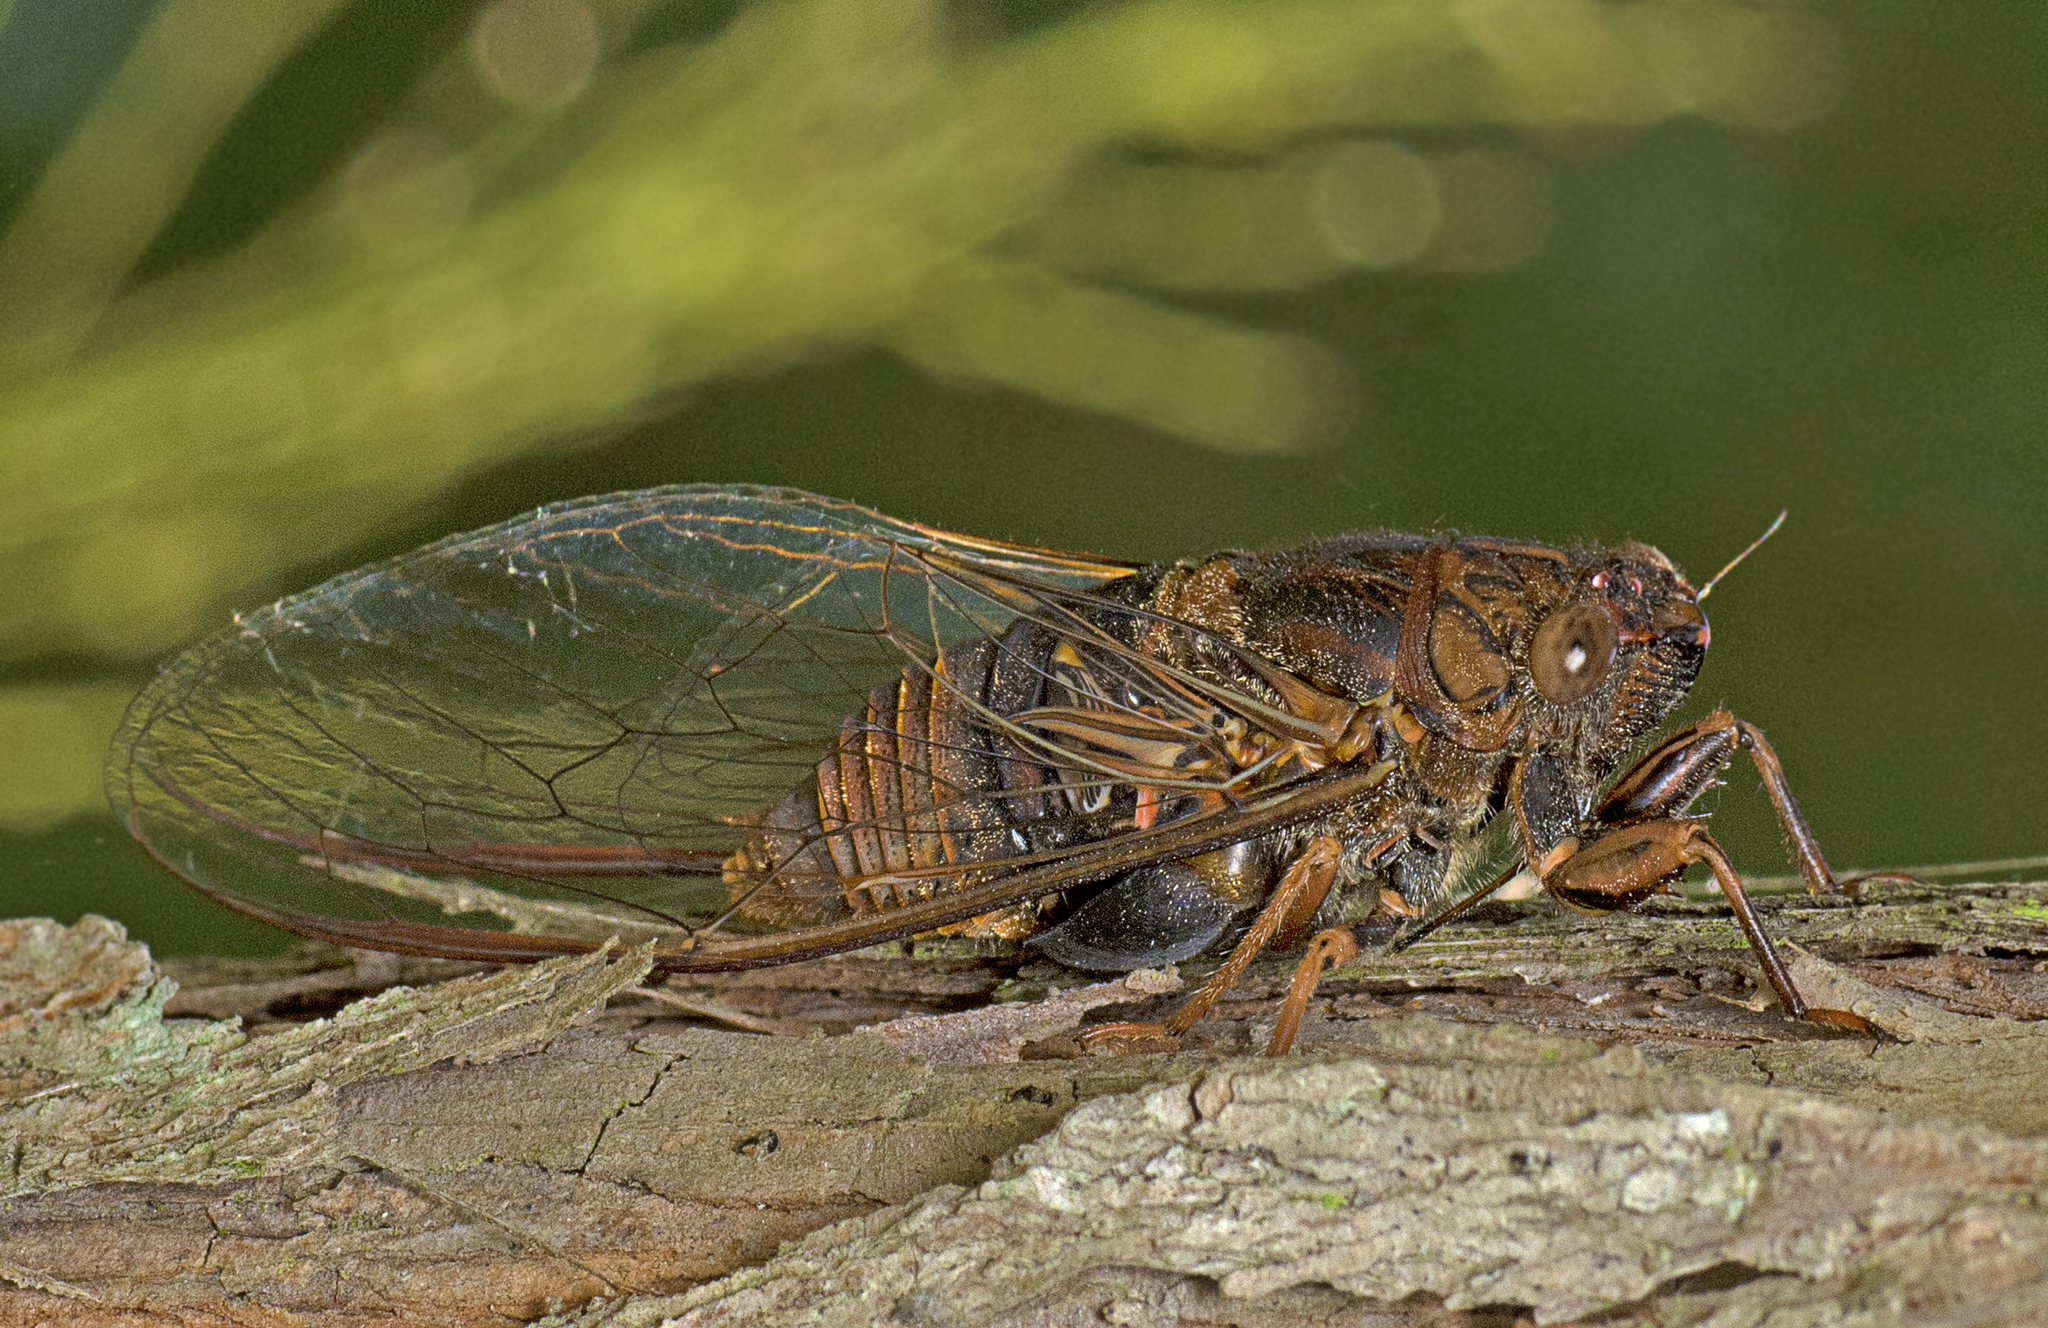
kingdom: Animalia
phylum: Arthropoda
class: Insecta
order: Hemiptera
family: Cicadidae
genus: Birrima
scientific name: Birrima varians
